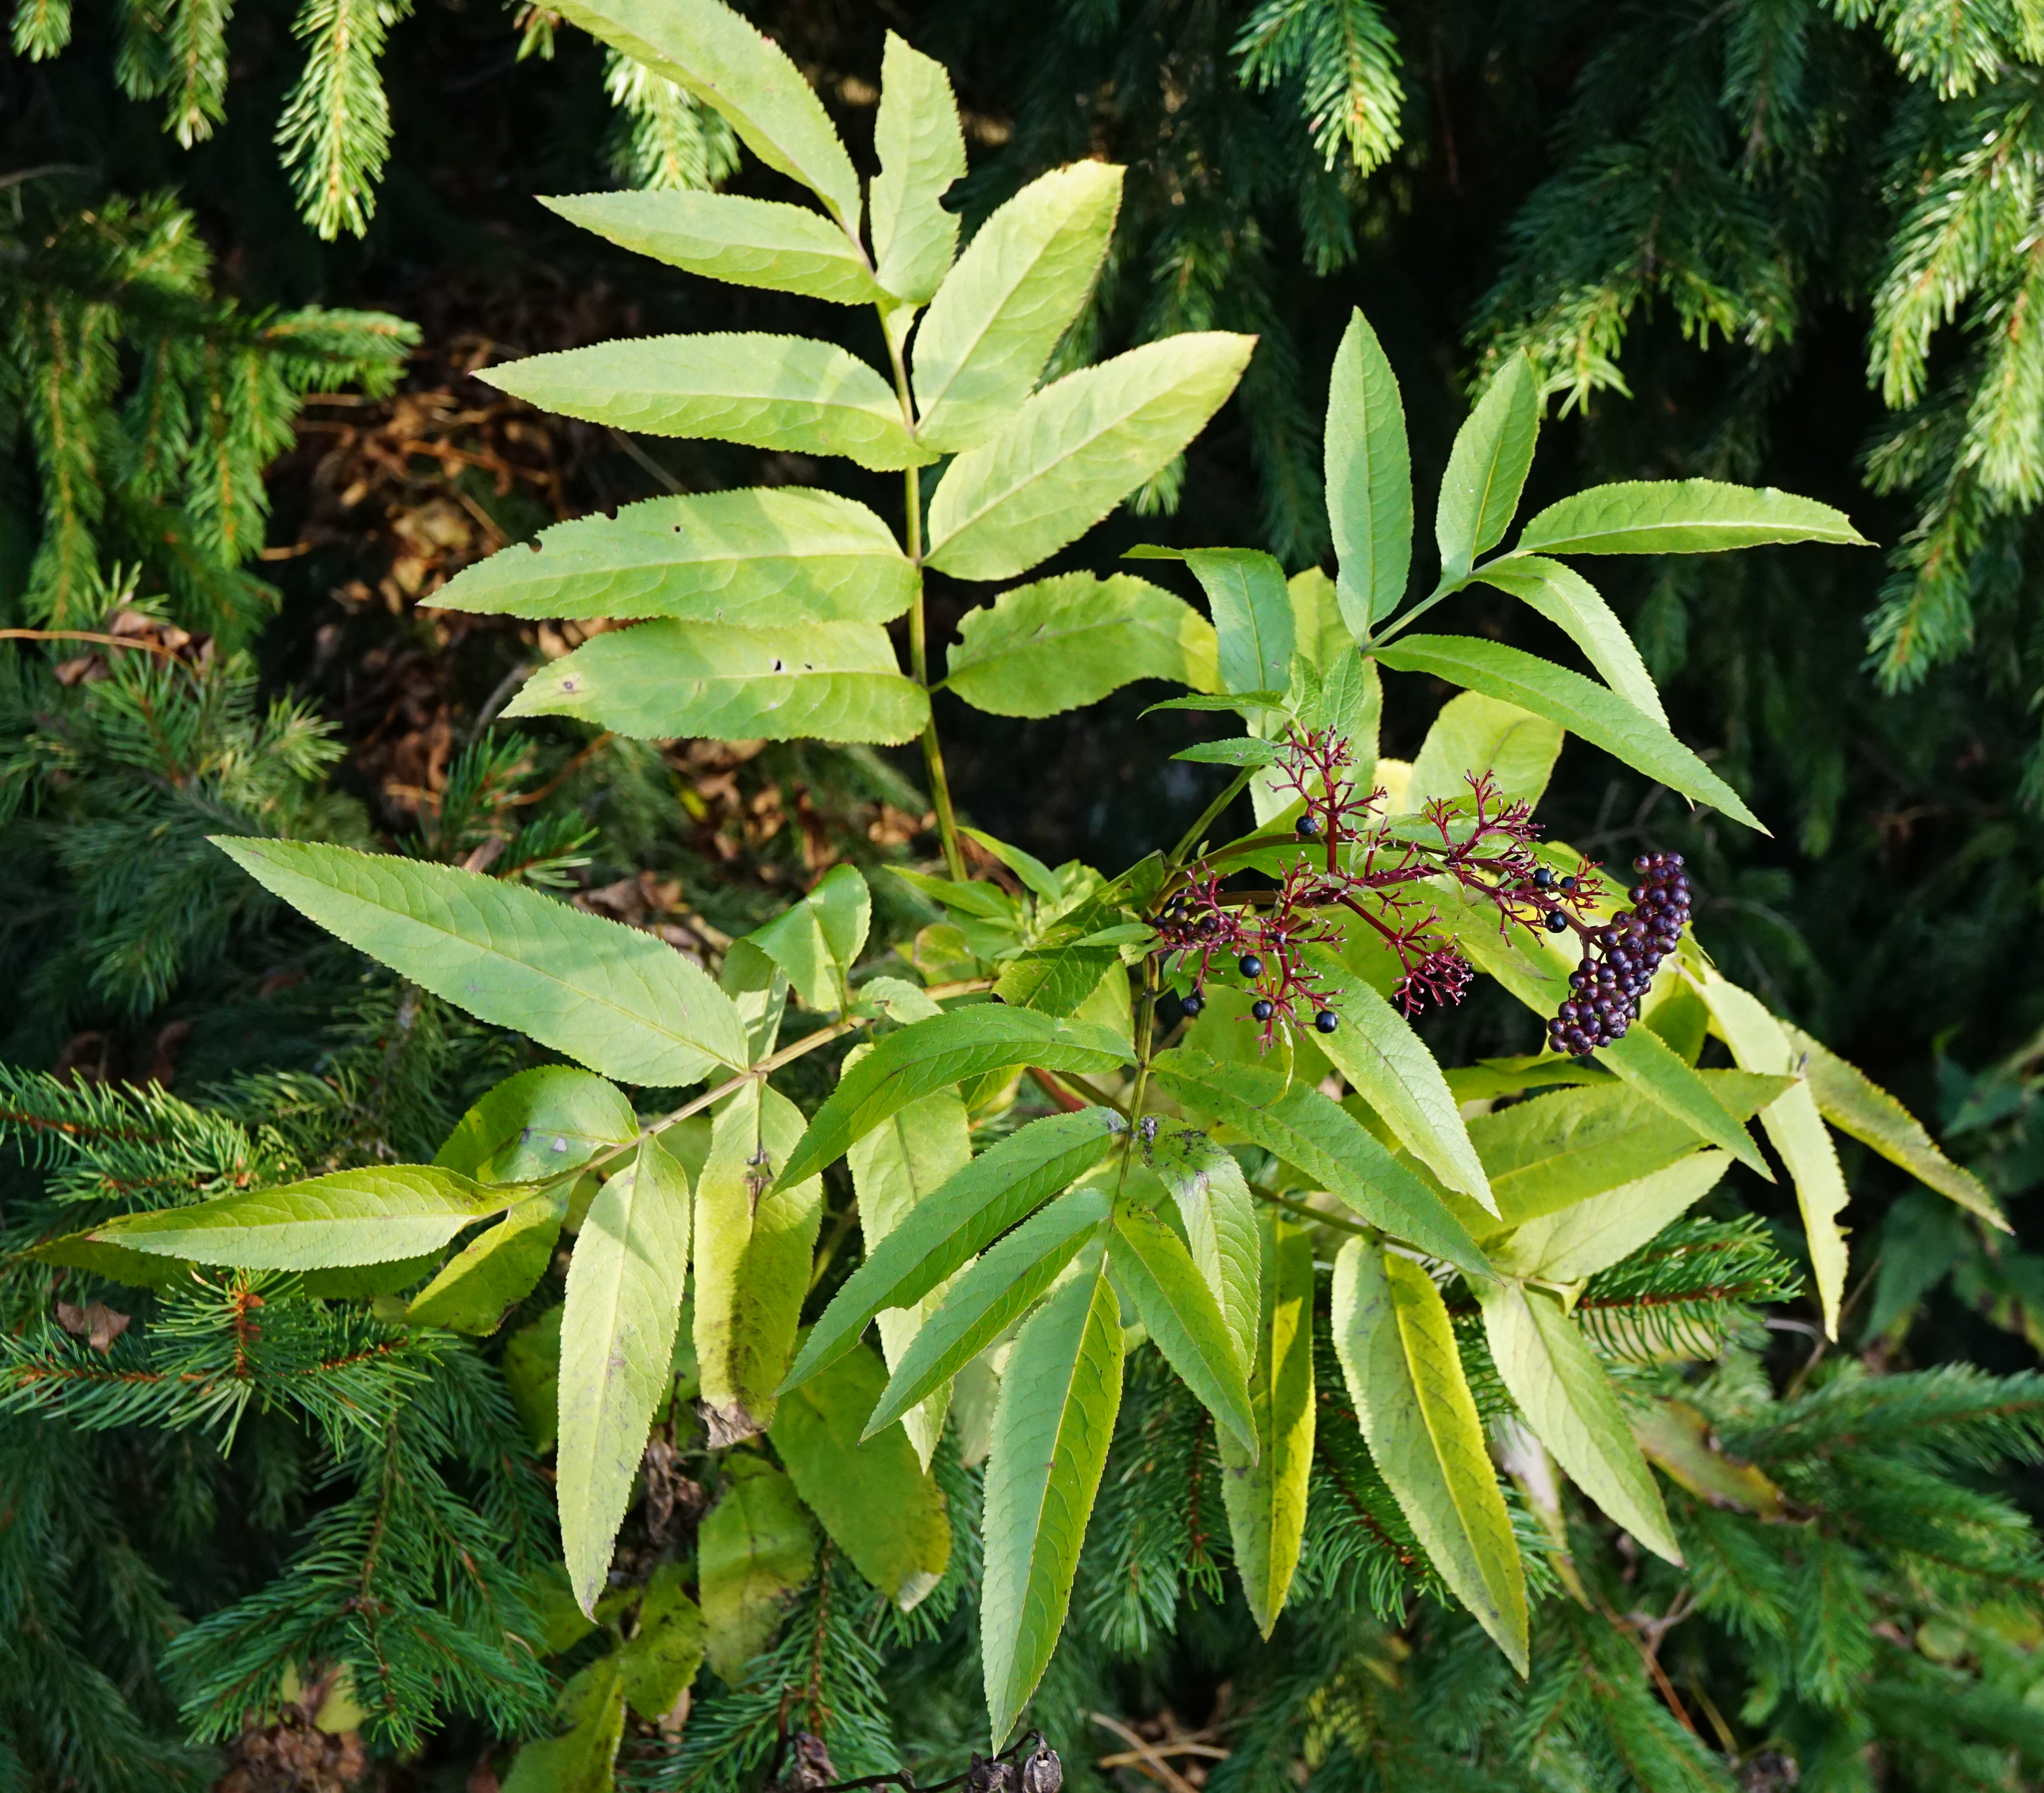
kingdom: Plantae
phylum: Tracheophyta
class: Magnoliopsida
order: Dipsacales
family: Viburnaceae
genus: Sambucus
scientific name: Sambucus ebulus
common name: Dwarf elder
